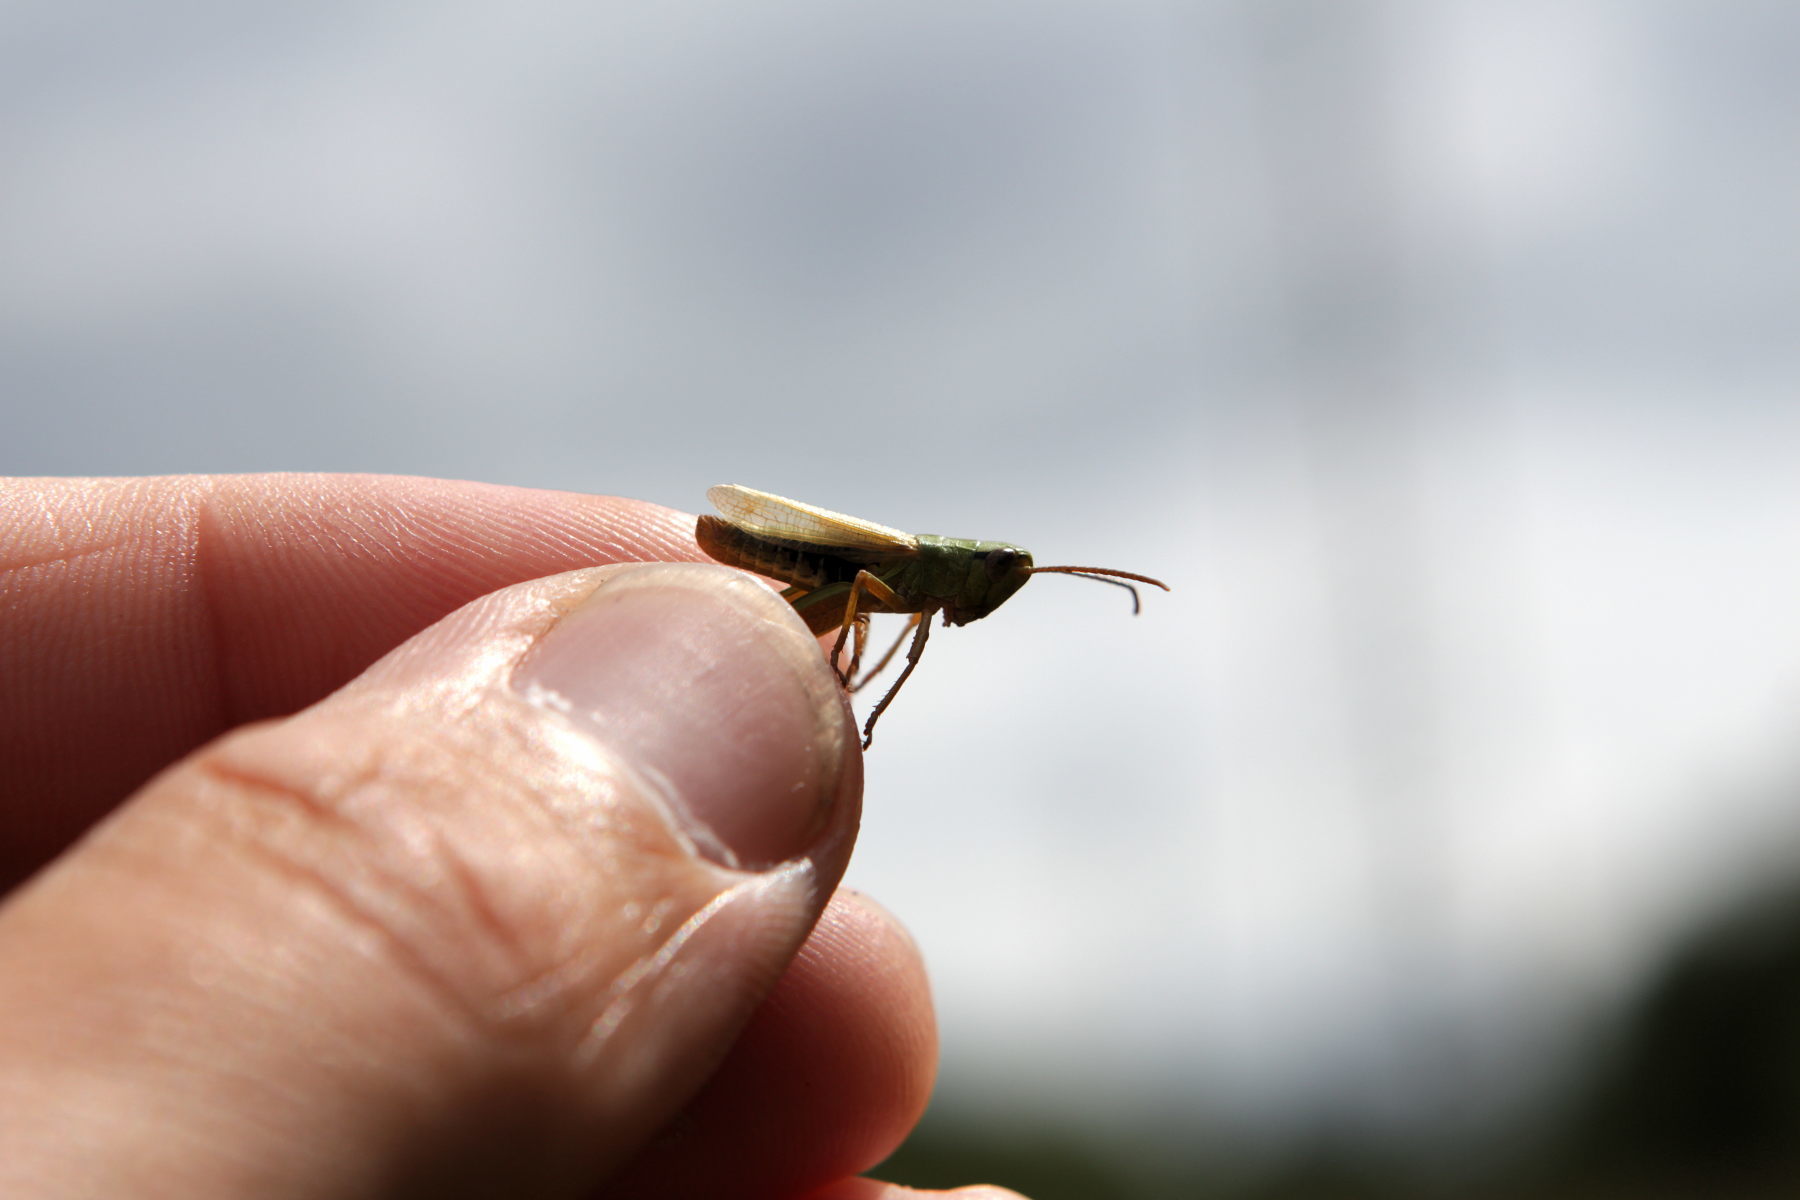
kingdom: Animalia
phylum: Arthropoda
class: Insecta
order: Orthoptera
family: Acrididae
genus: Pseudochorthippus
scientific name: Pseudochorthippus parallelus
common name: Meadow grasshopper
